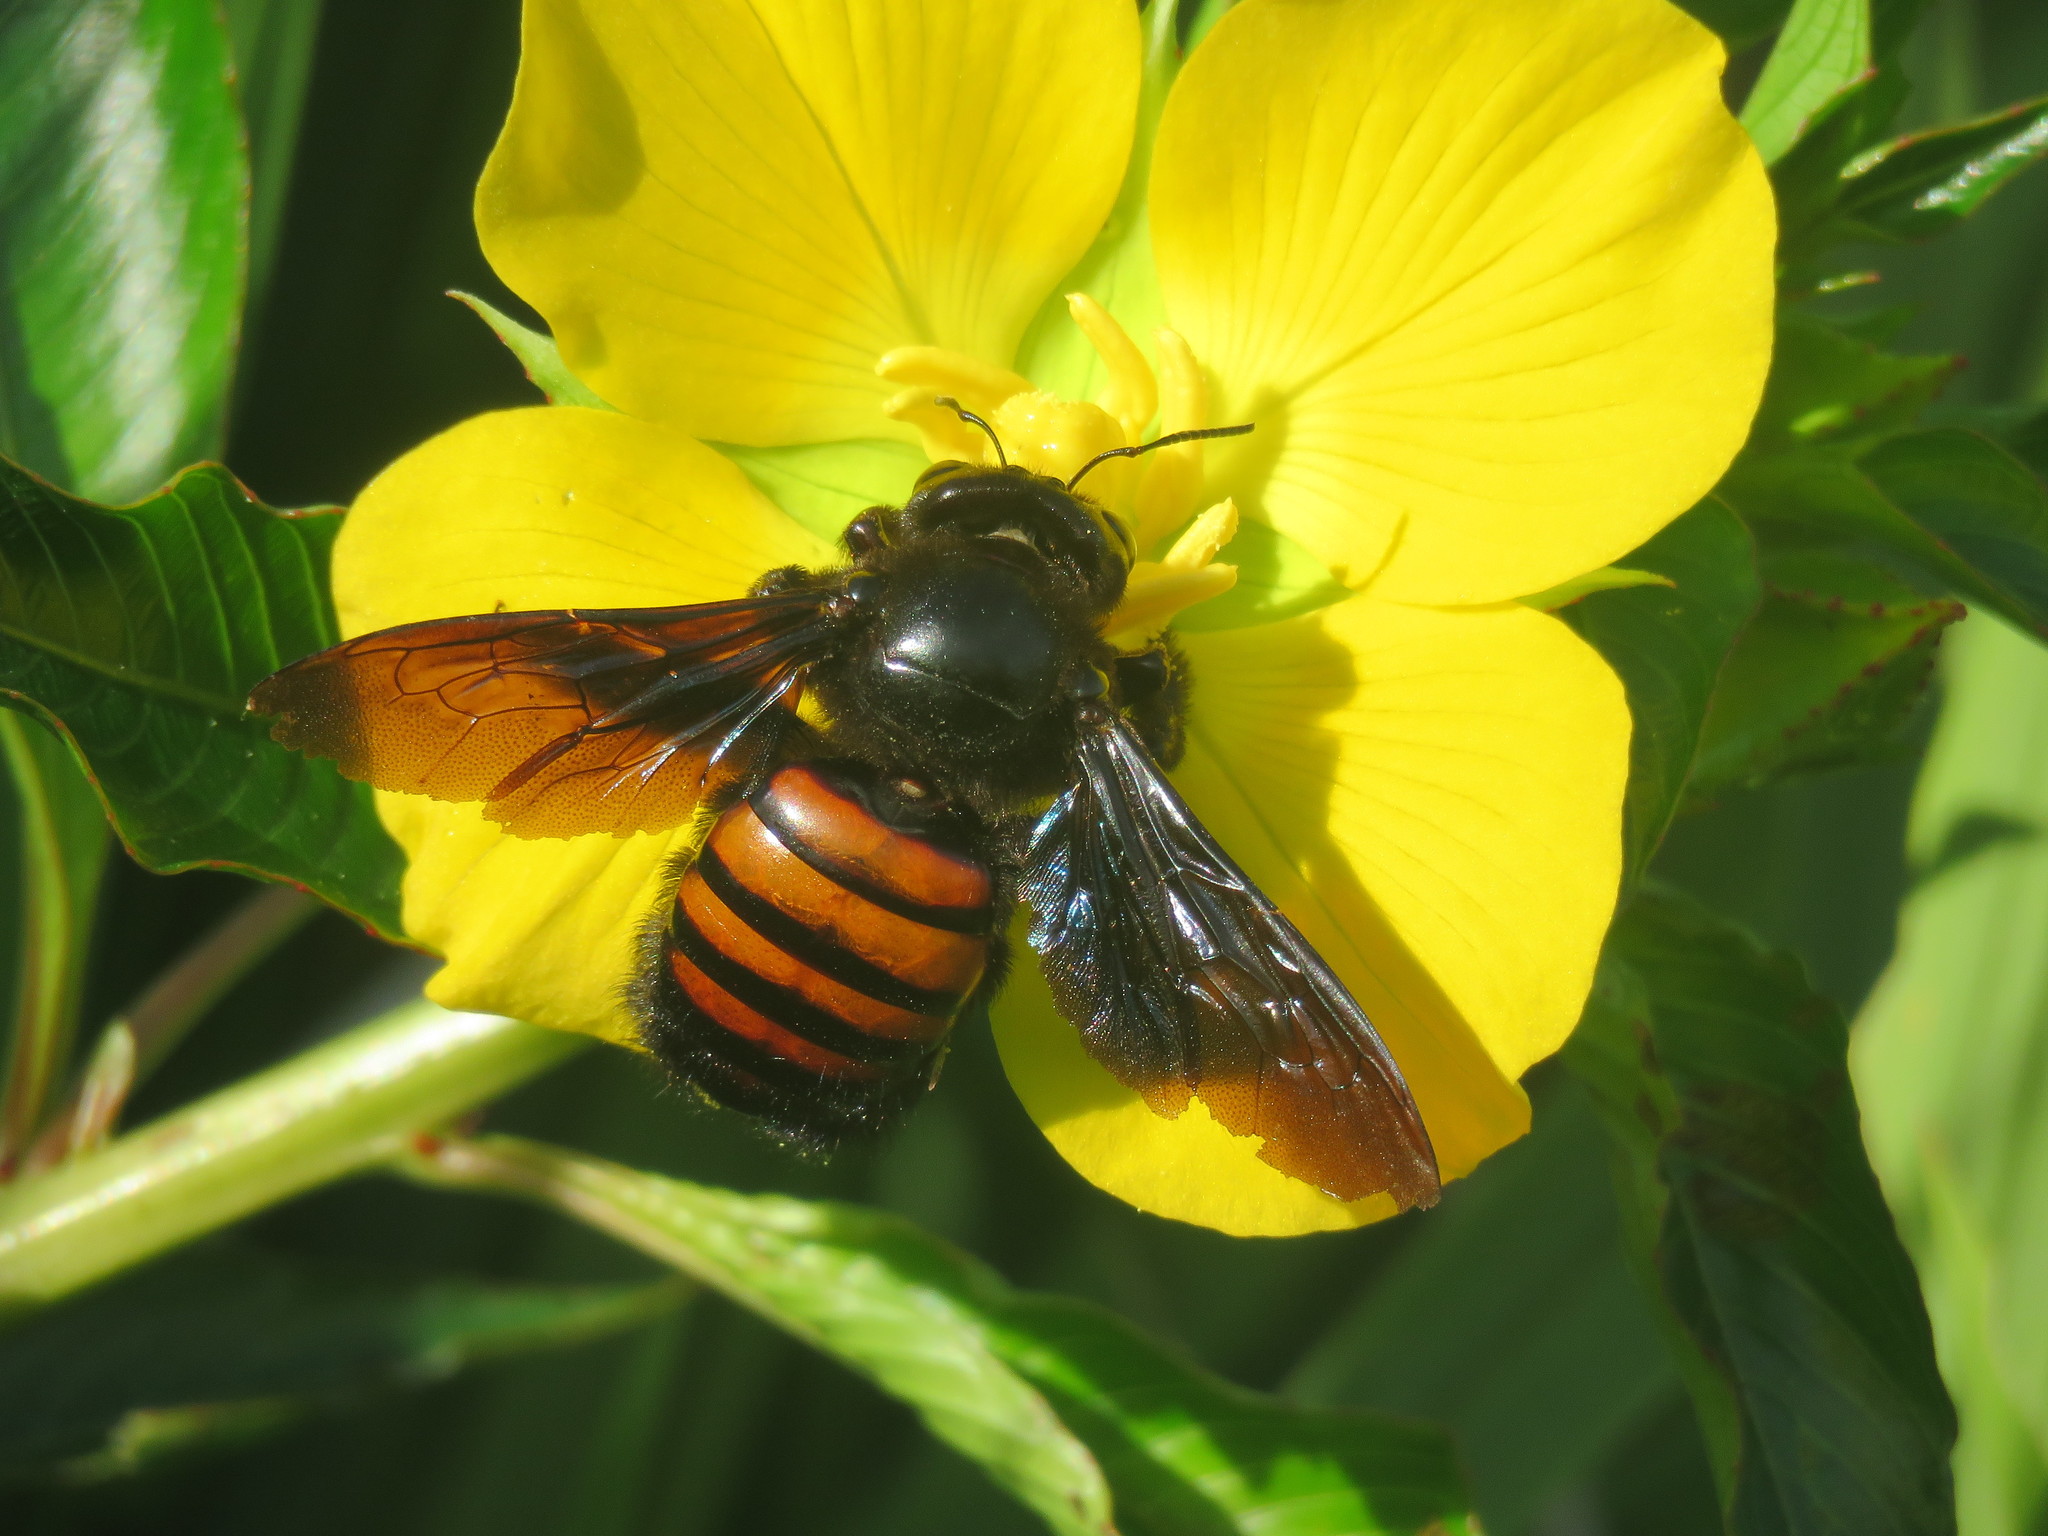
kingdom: Animalia
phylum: Arthropoda
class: Insecta
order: Hymenoptera
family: Apidae
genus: Xylocopa
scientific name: Xylocopa frontalis
